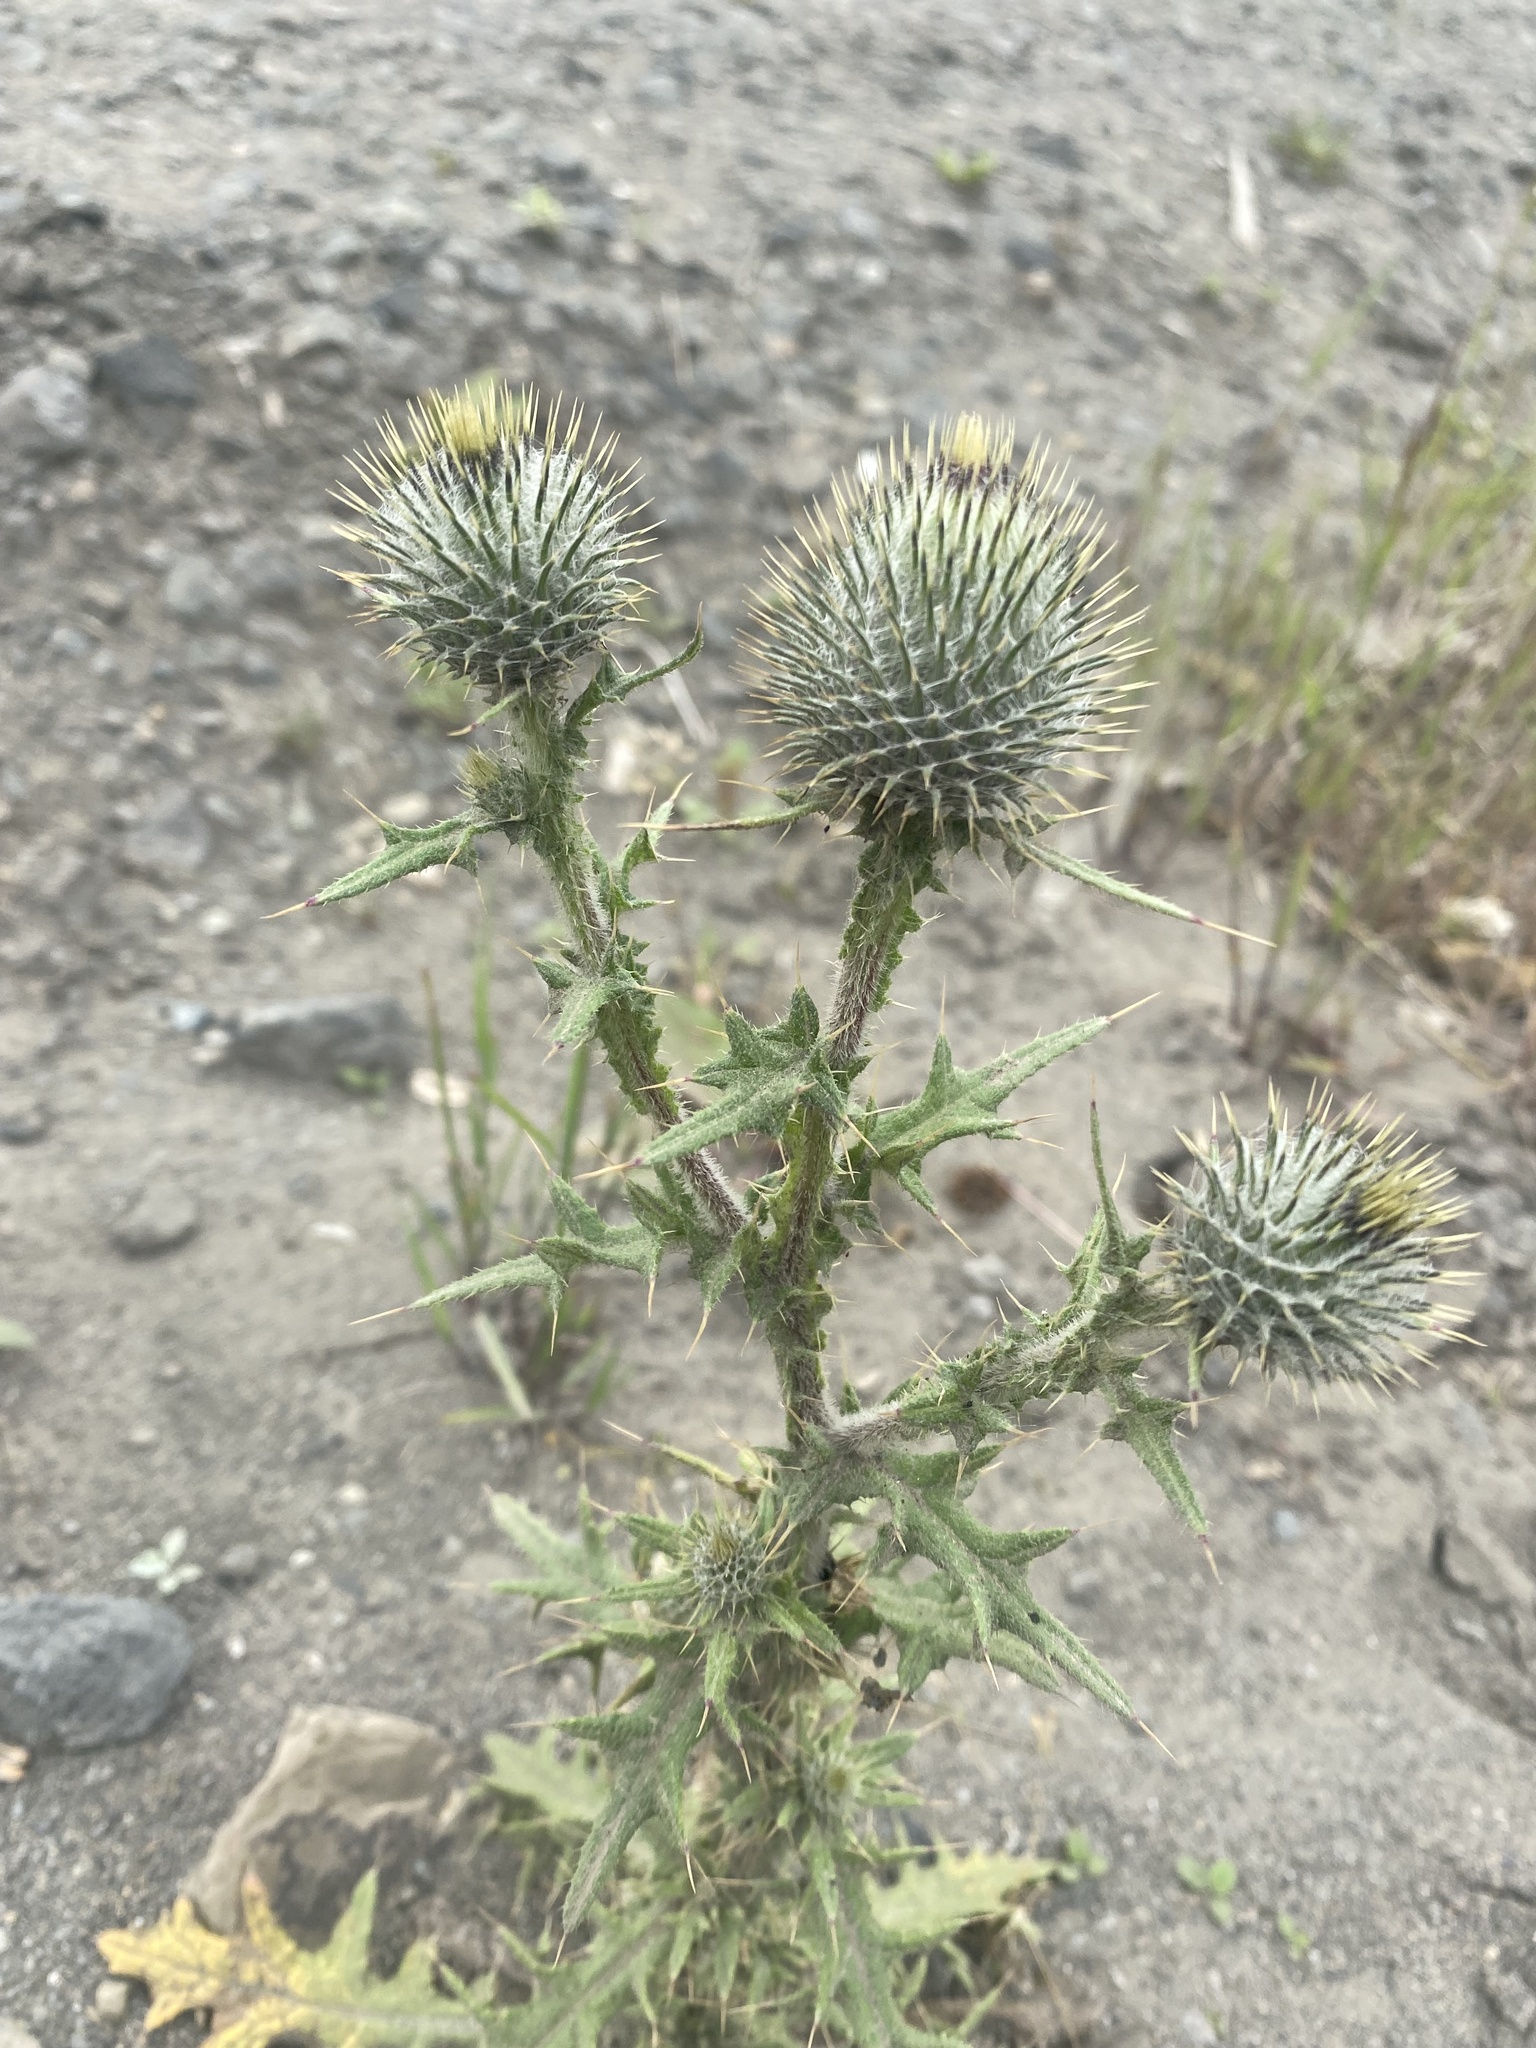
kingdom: Plantae
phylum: Tracheophyta
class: Magnoliopsida
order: Asterales
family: Asteraceae
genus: Cirsium
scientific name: Cirsium vulgare
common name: Bull thistle
